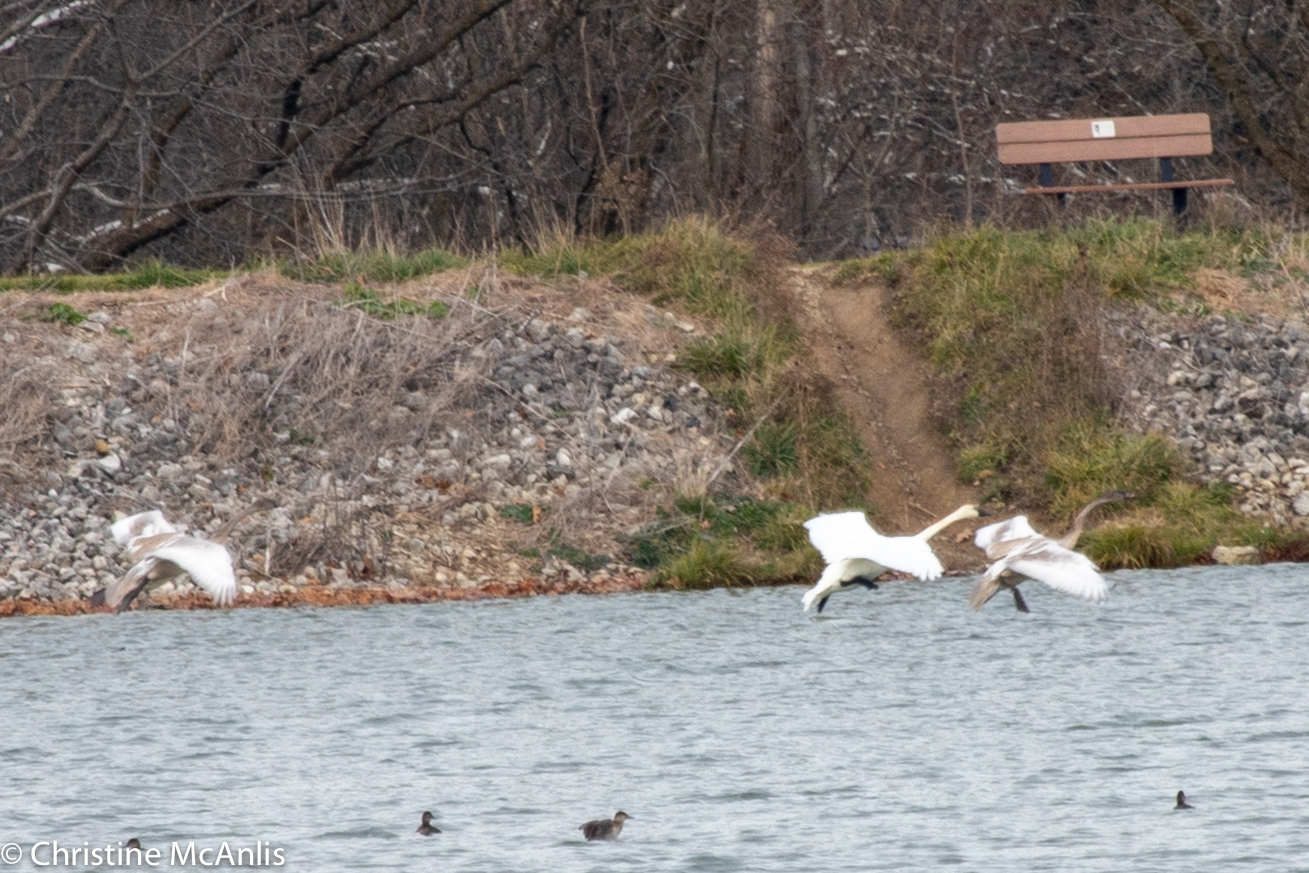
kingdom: Animalia
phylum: Chordata
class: Aves
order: Anseriformes
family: Anatidae
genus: Cygnus
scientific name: Cygnus buccinator
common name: Trumpeter swan
